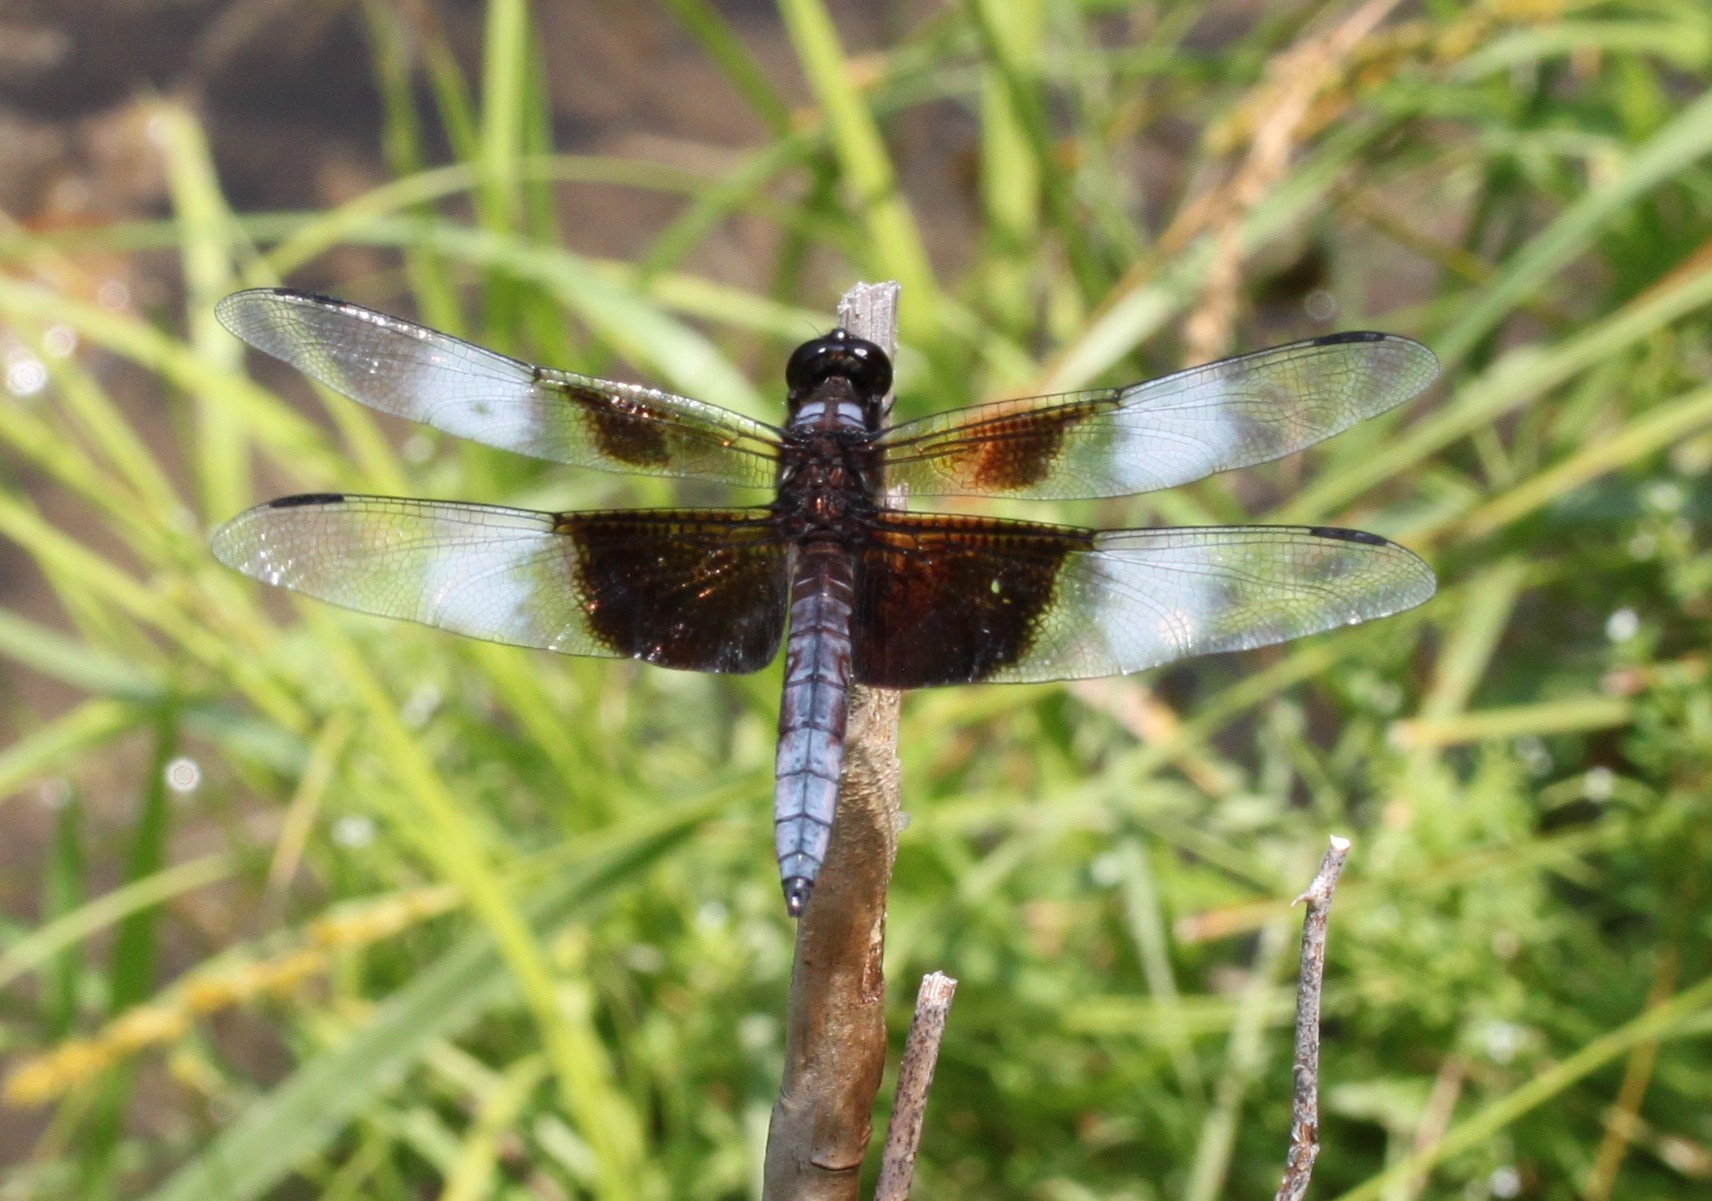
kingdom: Animalia
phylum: Arthropoda
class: Insecta
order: Odonata
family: Libellulidae
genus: Libellula
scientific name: Libellula luctuosa
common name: Widow skimmer
